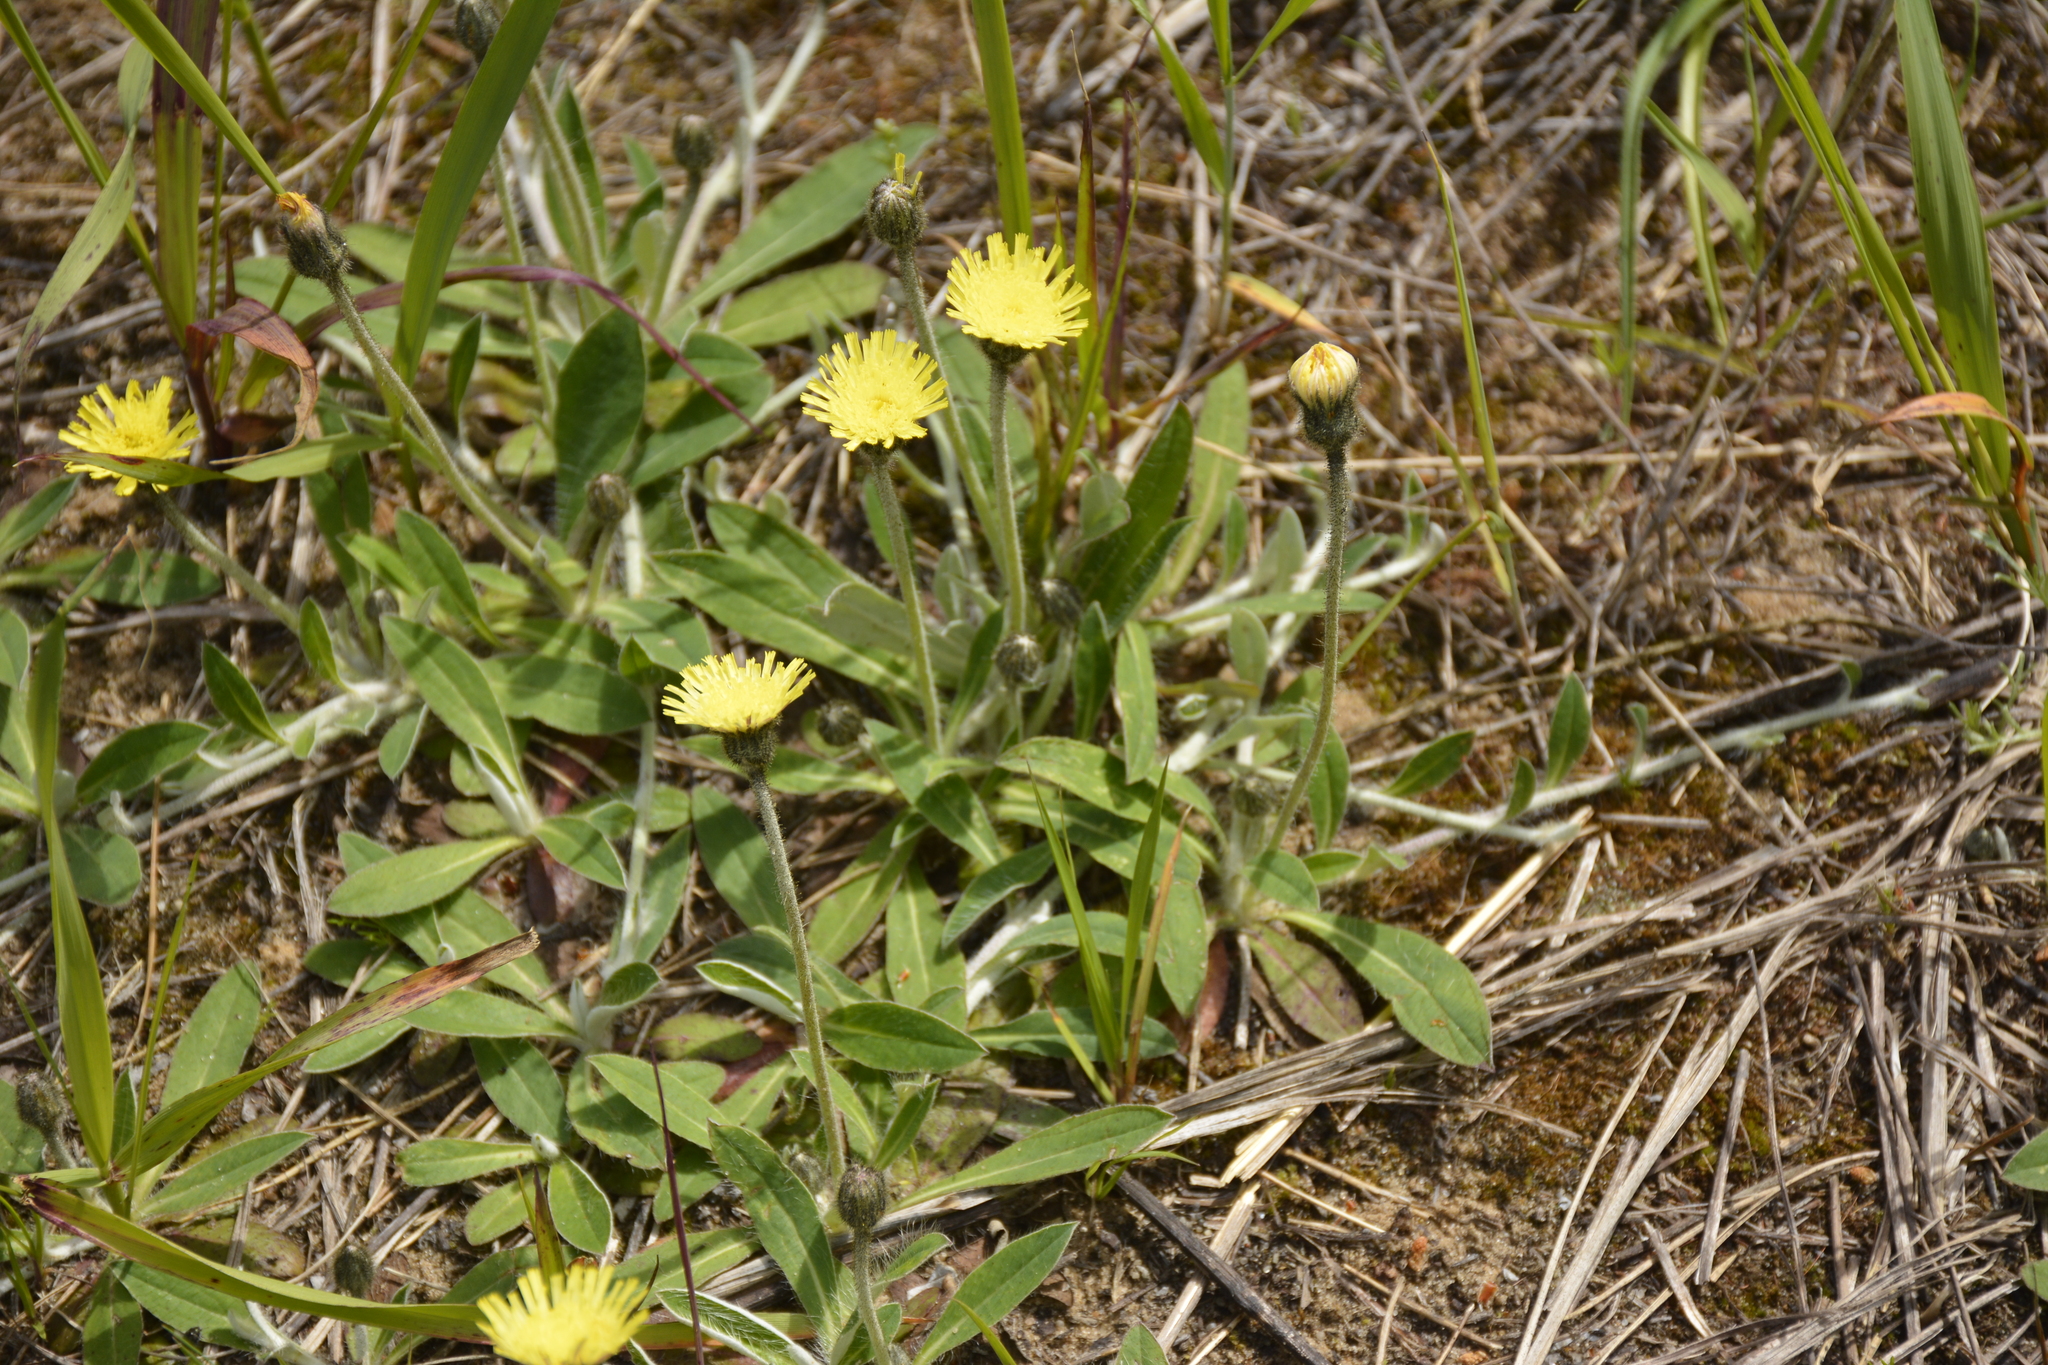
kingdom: Plantae
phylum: Tracheophyta
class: Magnoliopsida
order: Asterales
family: Asteraceae
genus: Pilosella
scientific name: Pilosella officinarum
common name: Mouse-ear hawkweed
